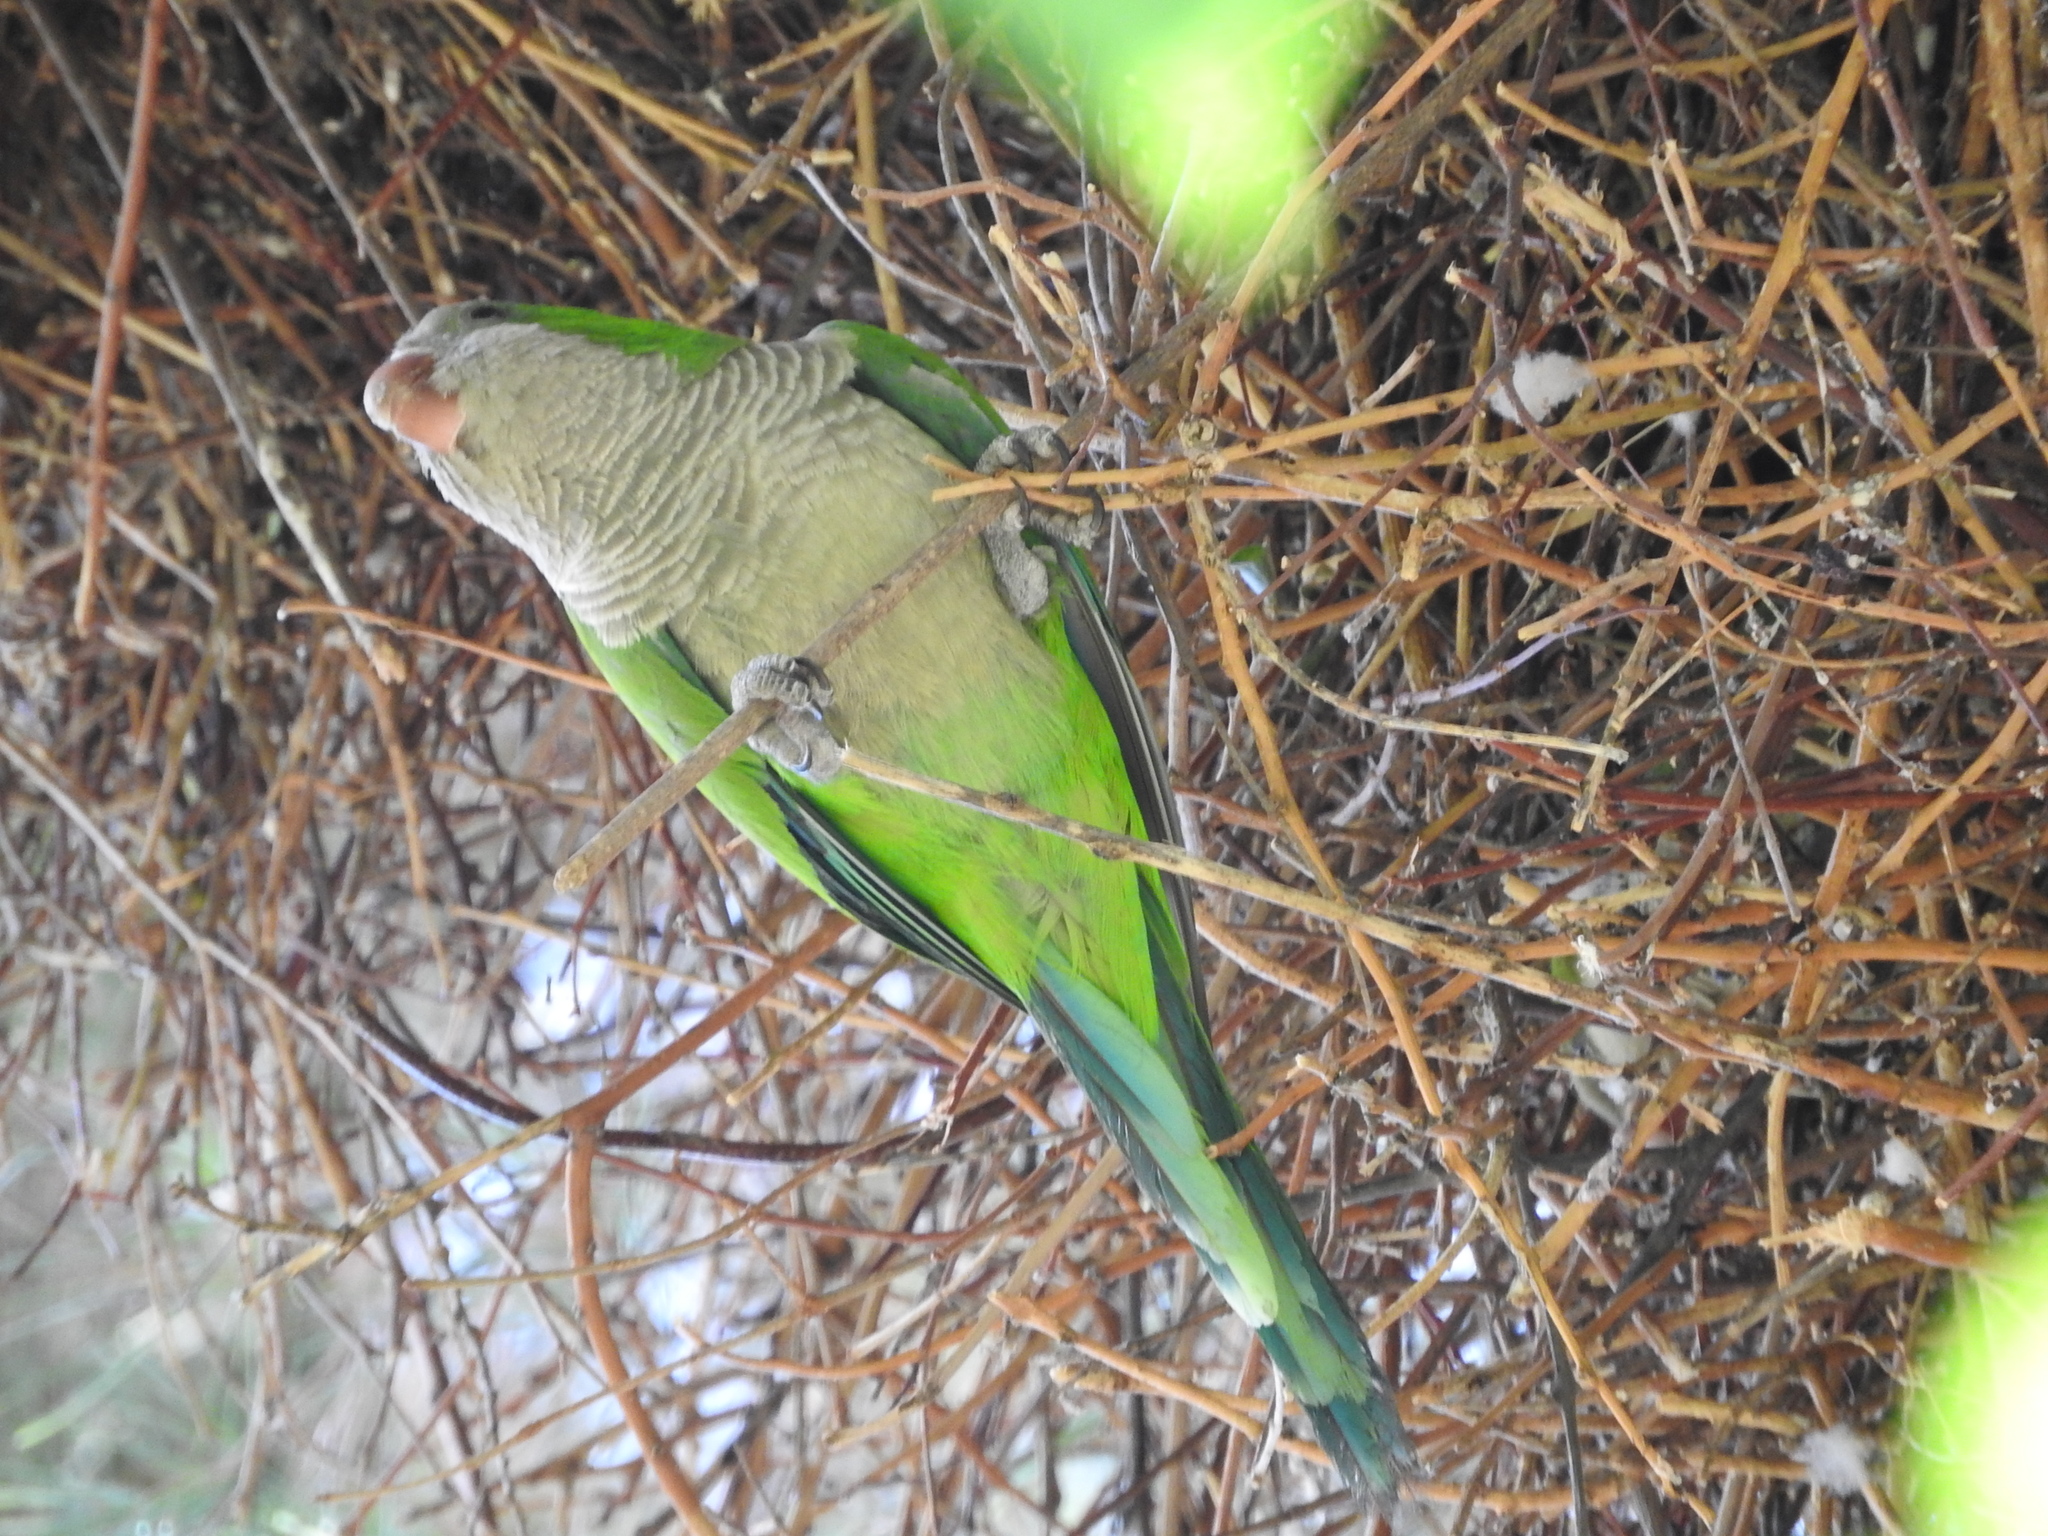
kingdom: Animalia
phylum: Chordata
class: Aves
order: Psittaciformes
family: Psittacidae
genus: Myiopsitta
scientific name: Myiopsitta monachus
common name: Monk parakeet
